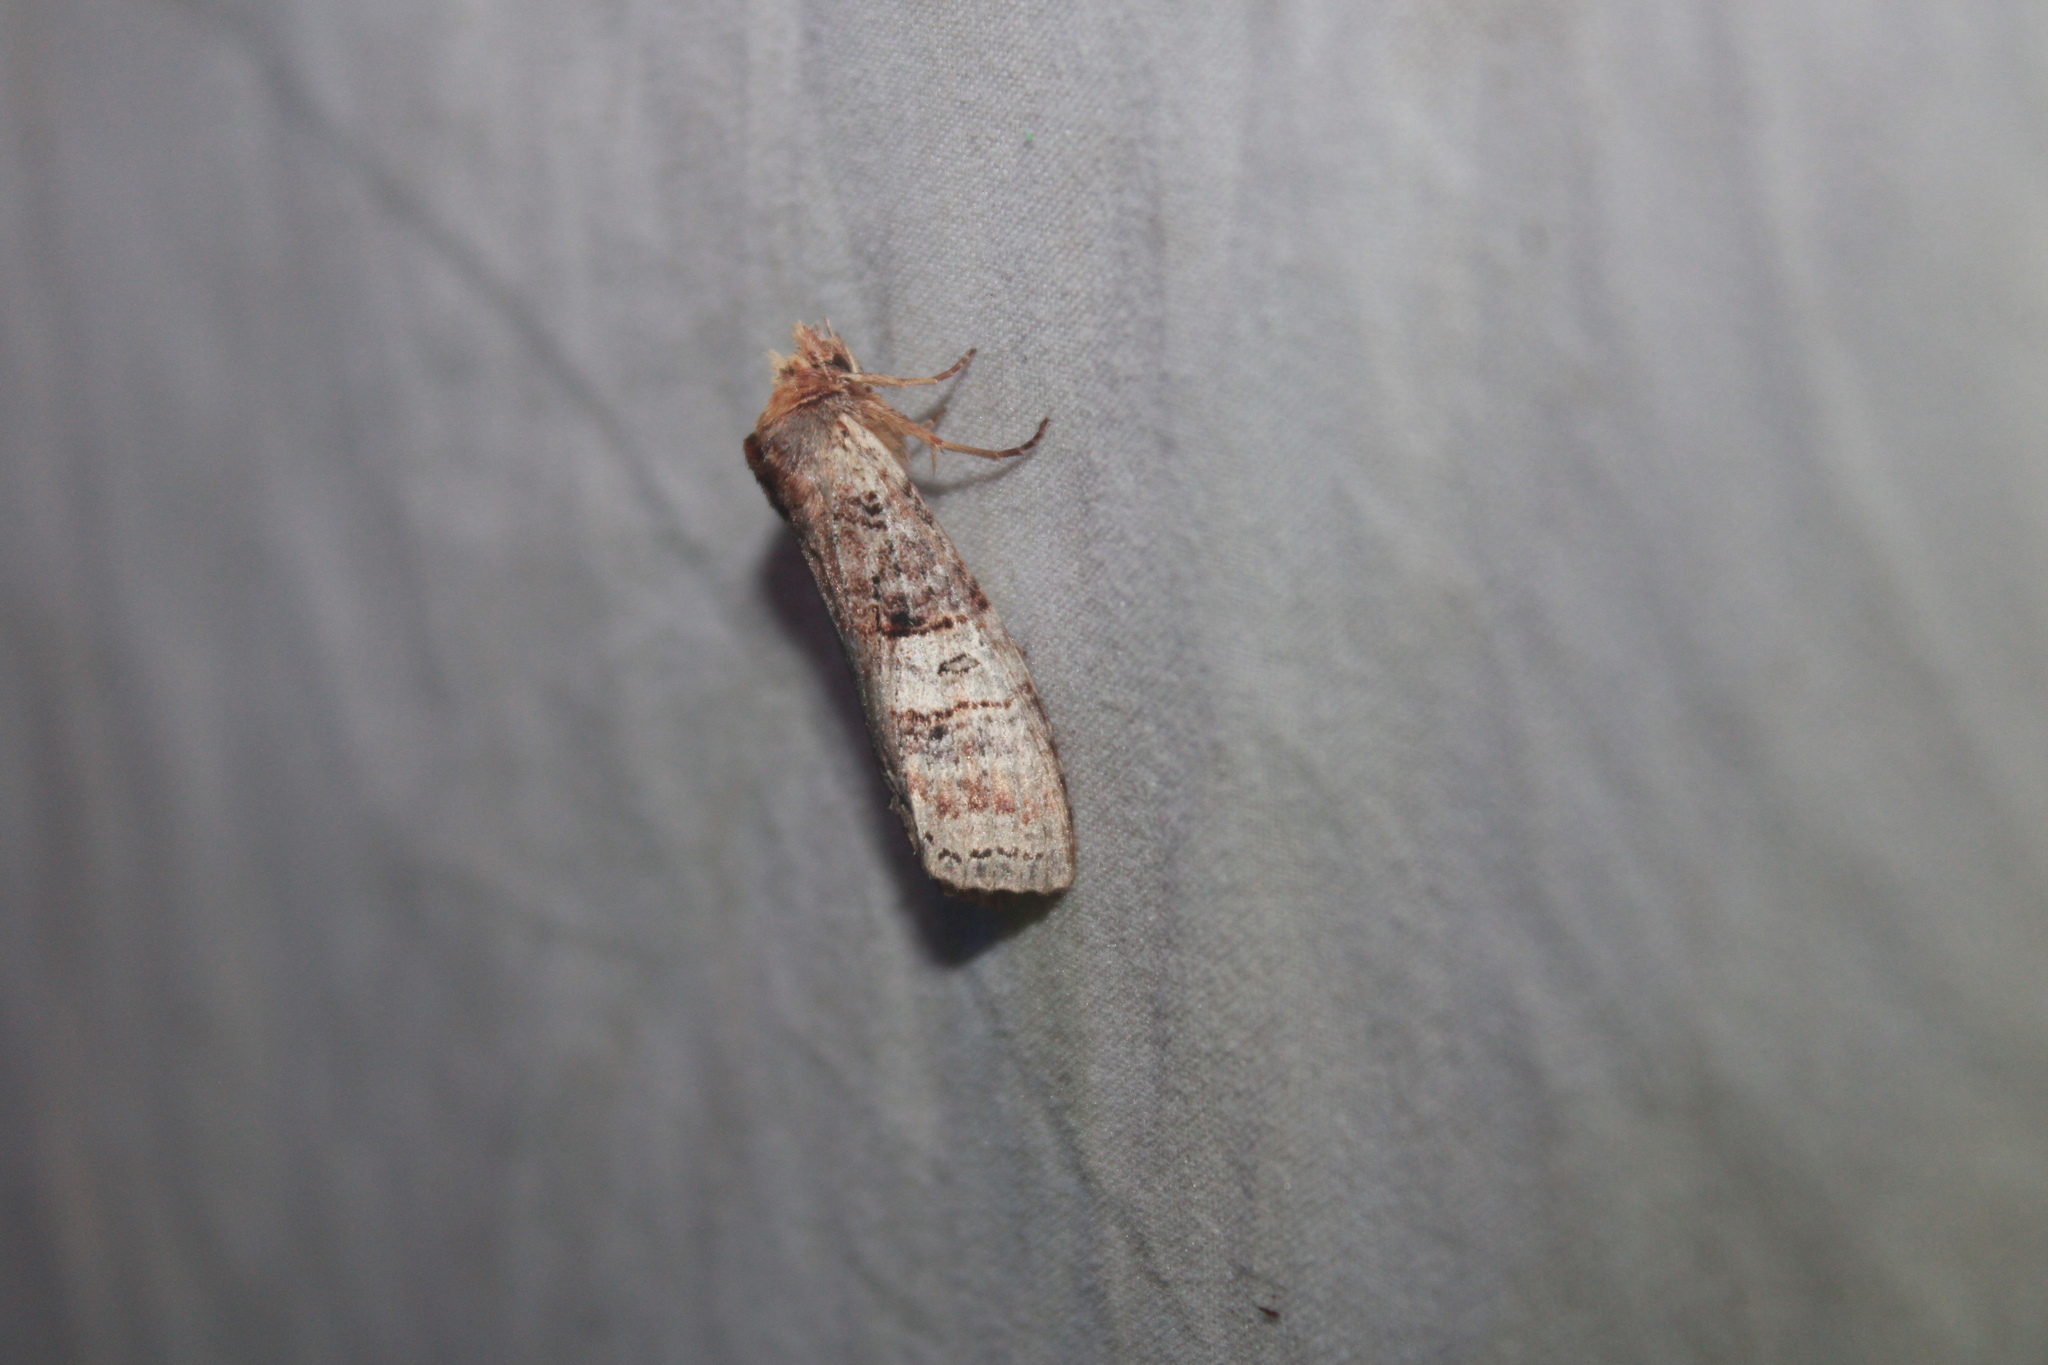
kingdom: Animalia
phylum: Arthropoda
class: Insecta
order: Lepidoptera
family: Notodontidae
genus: Nystalea
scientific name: Nystalea indiana
